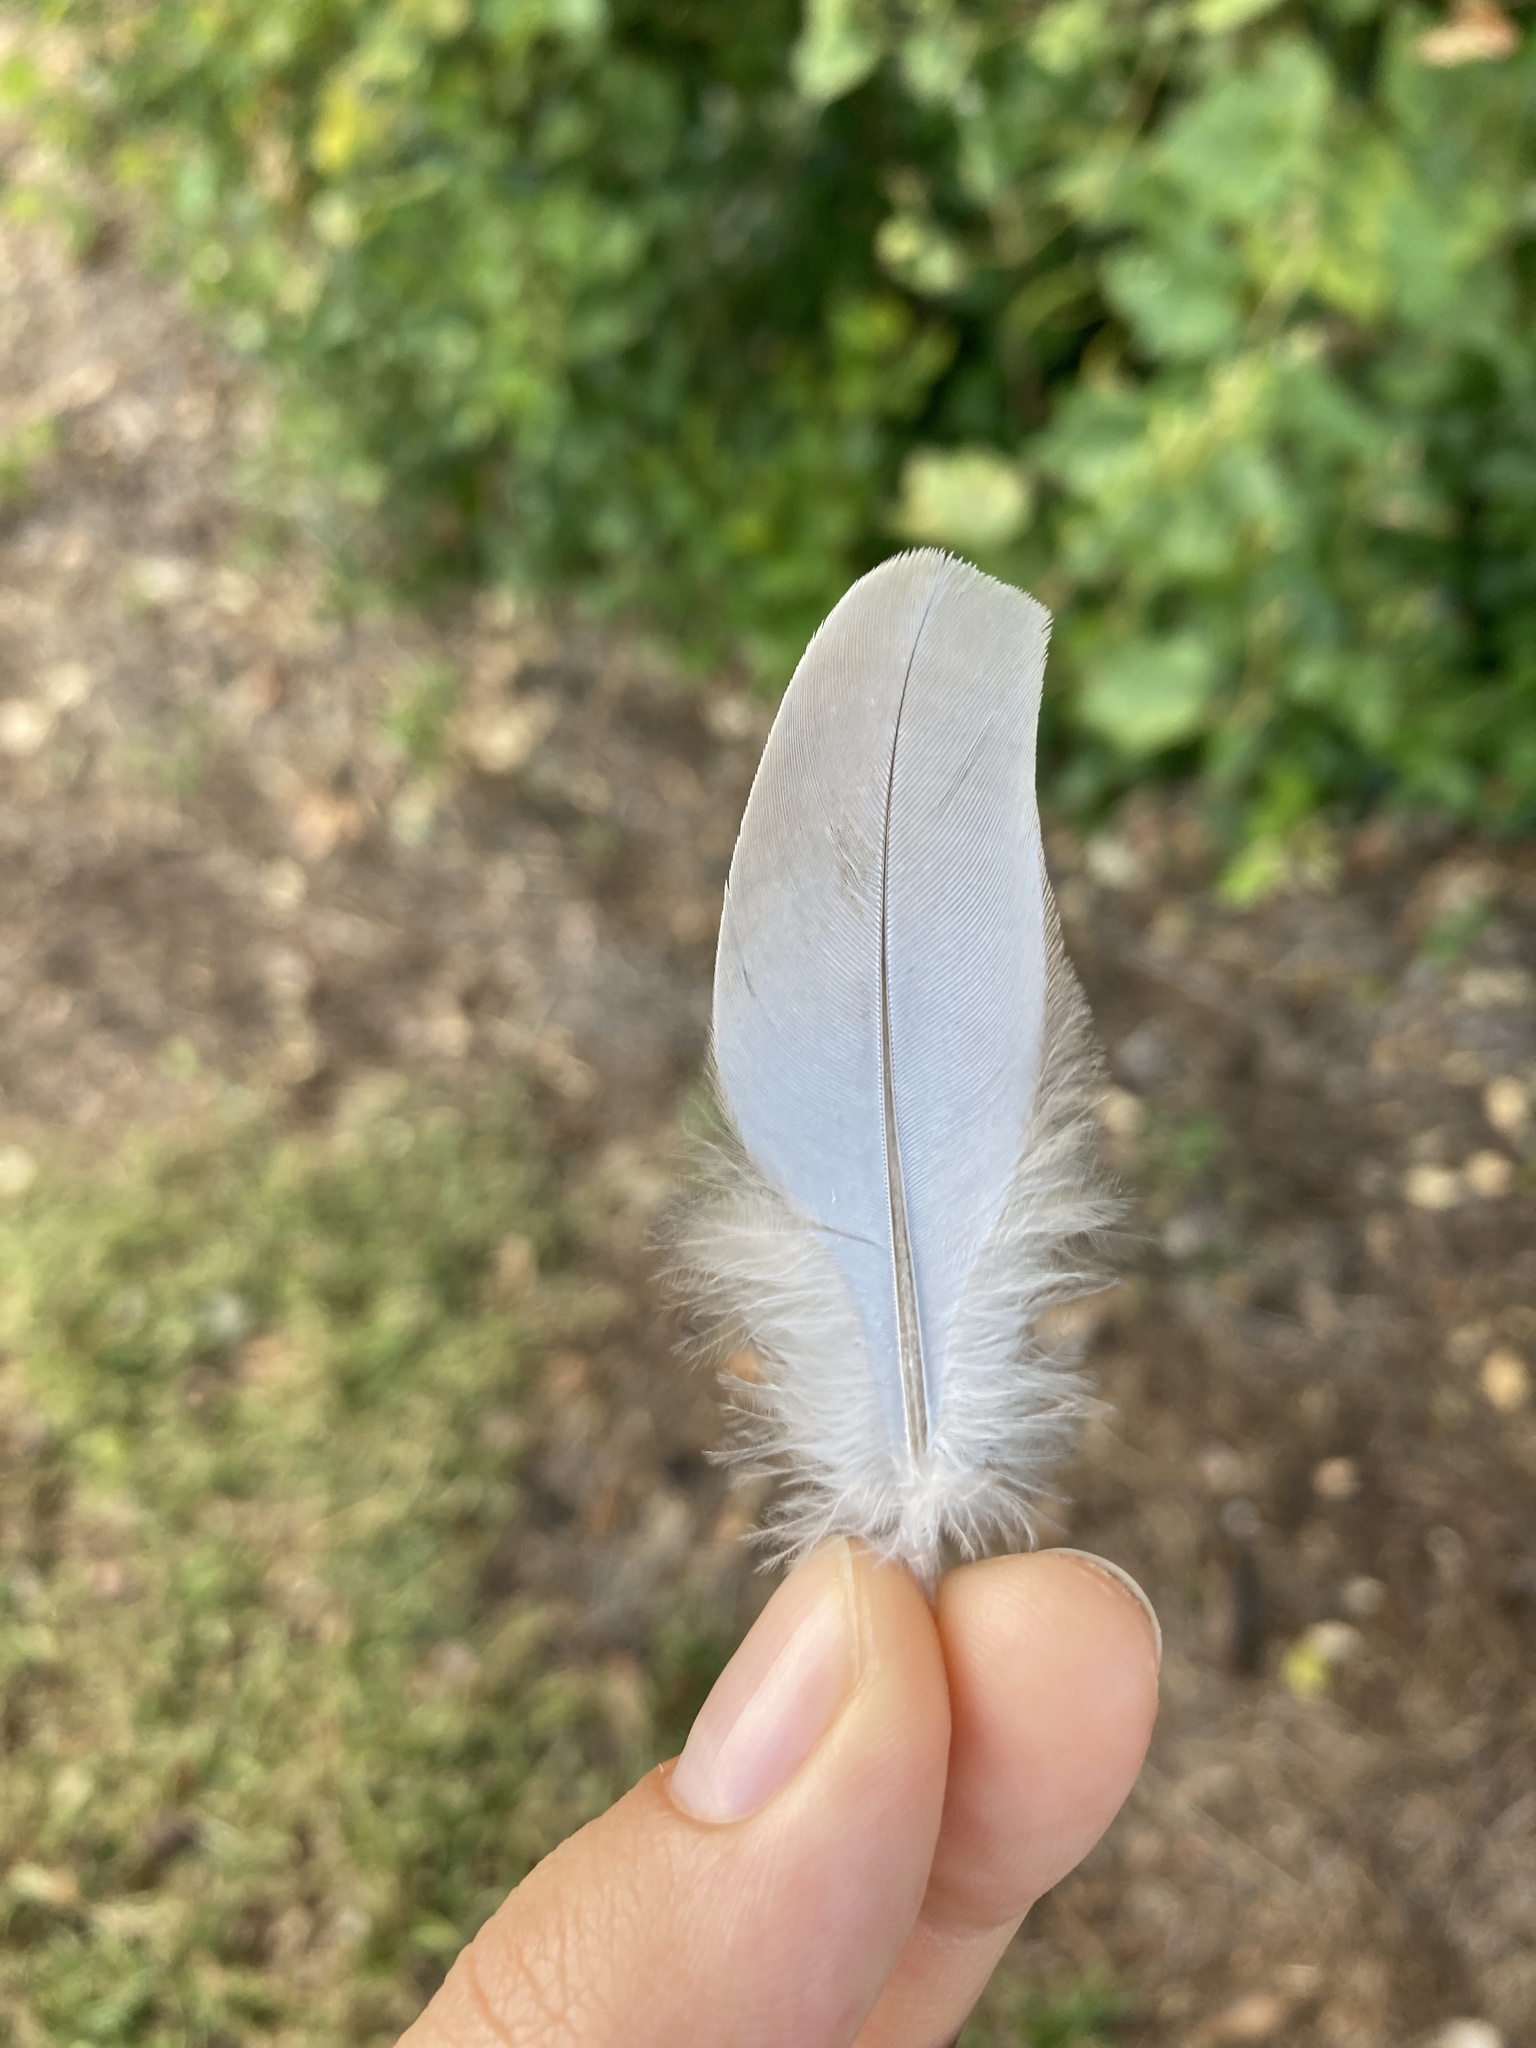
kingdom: Animalia
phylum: Chordata
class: Aves
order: Columbiformes
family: Columbidae
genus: Zenaida
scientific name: Zenaida macroura
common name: Mourning dove
